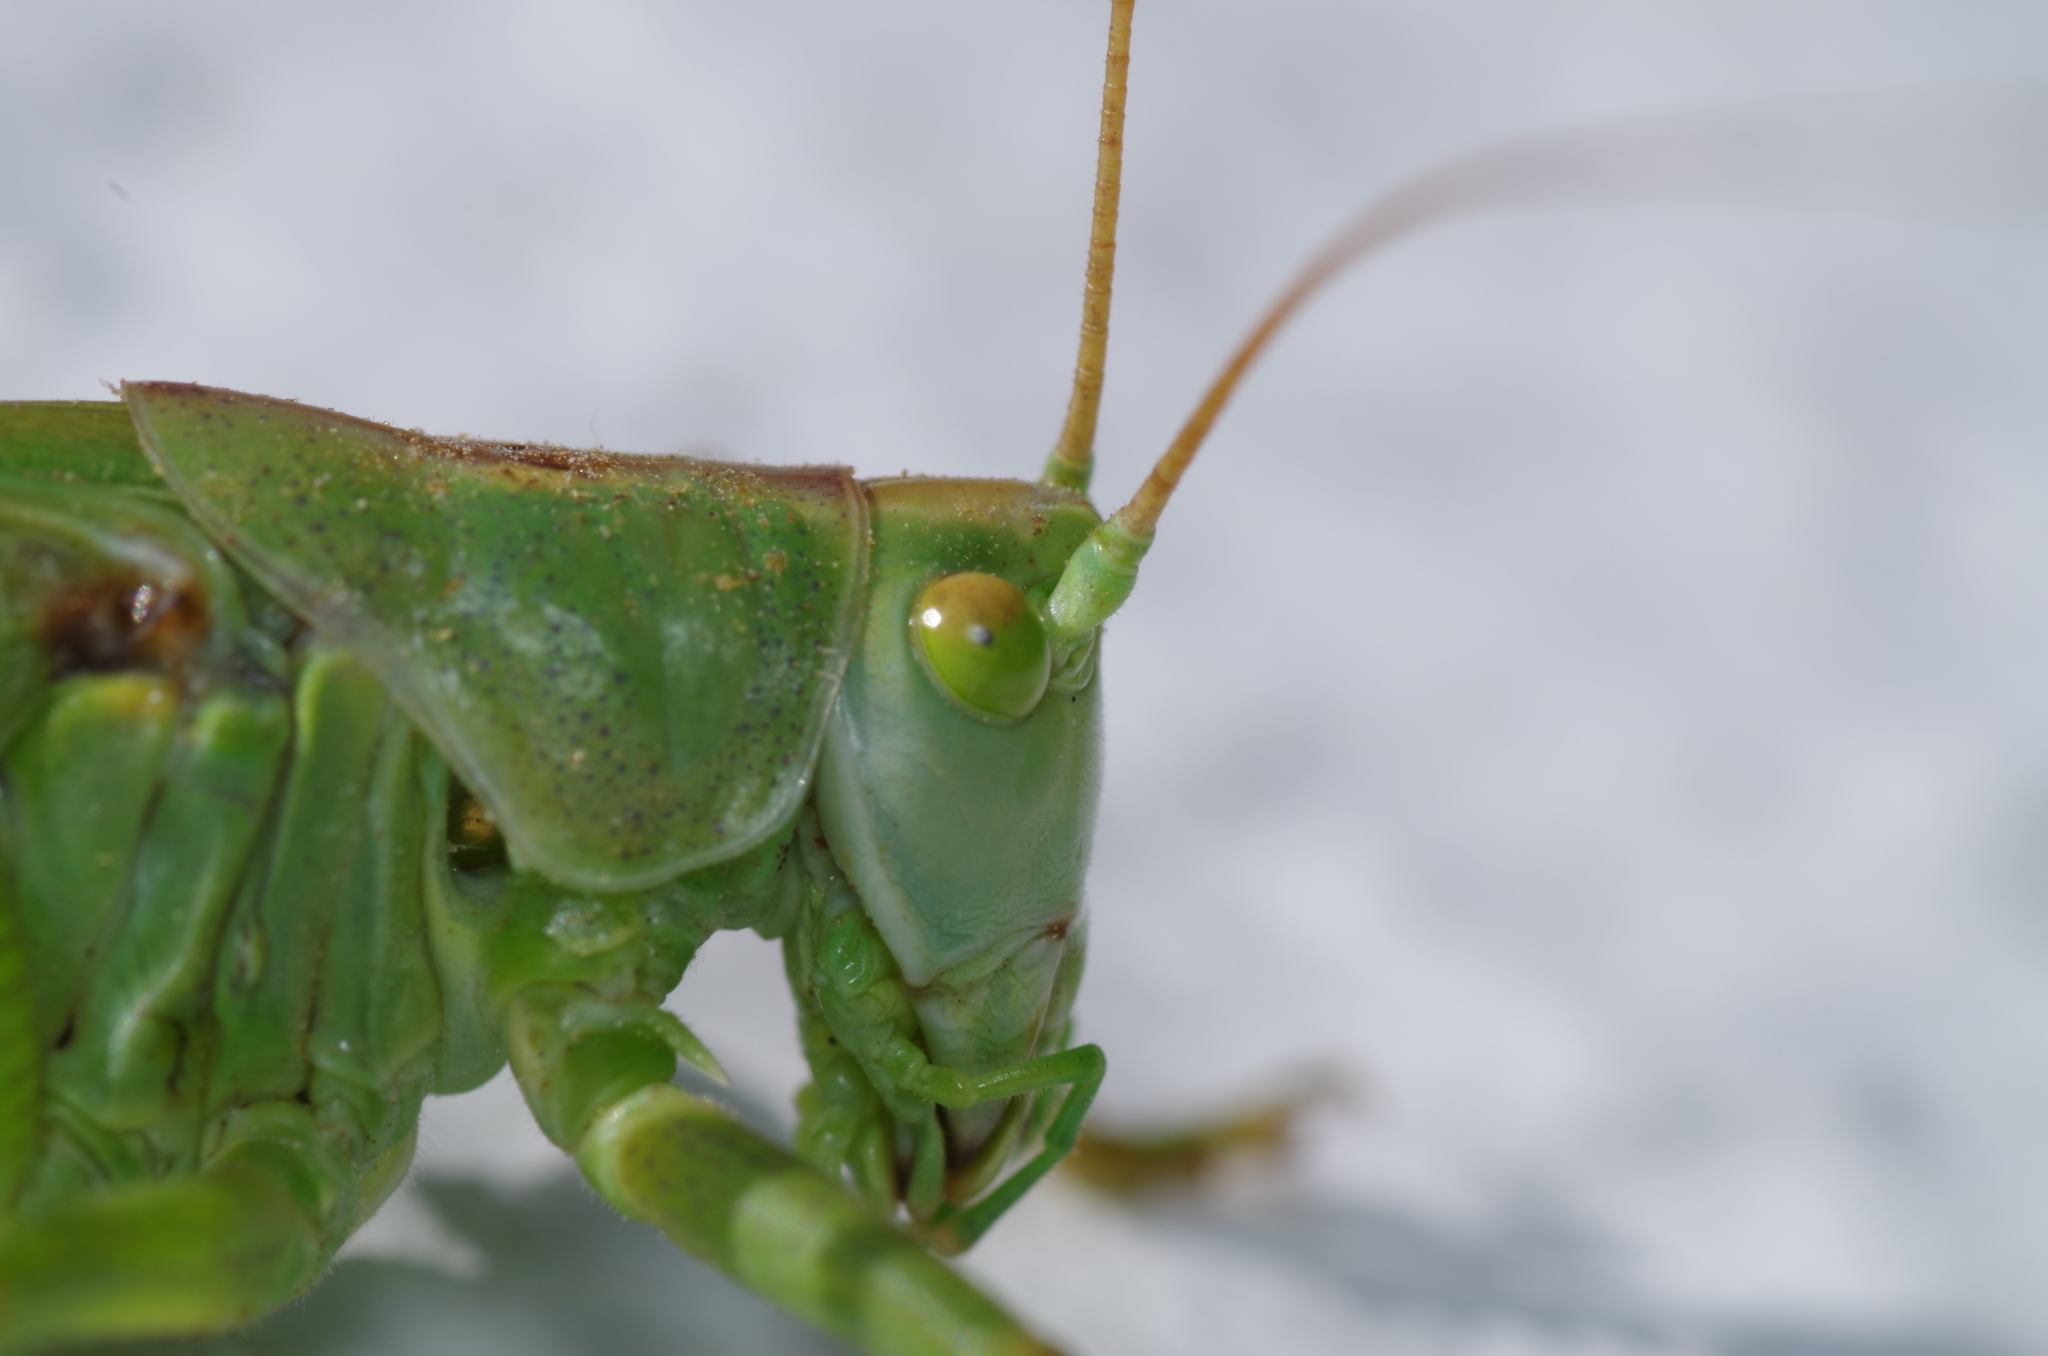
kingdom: Animalia
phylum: Arthropoda
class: Insecta
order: Orthoptera
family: Tettigoniidae
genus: Tettigonia
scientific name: Tettigonia viridissima
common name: Great green bush-cricket
